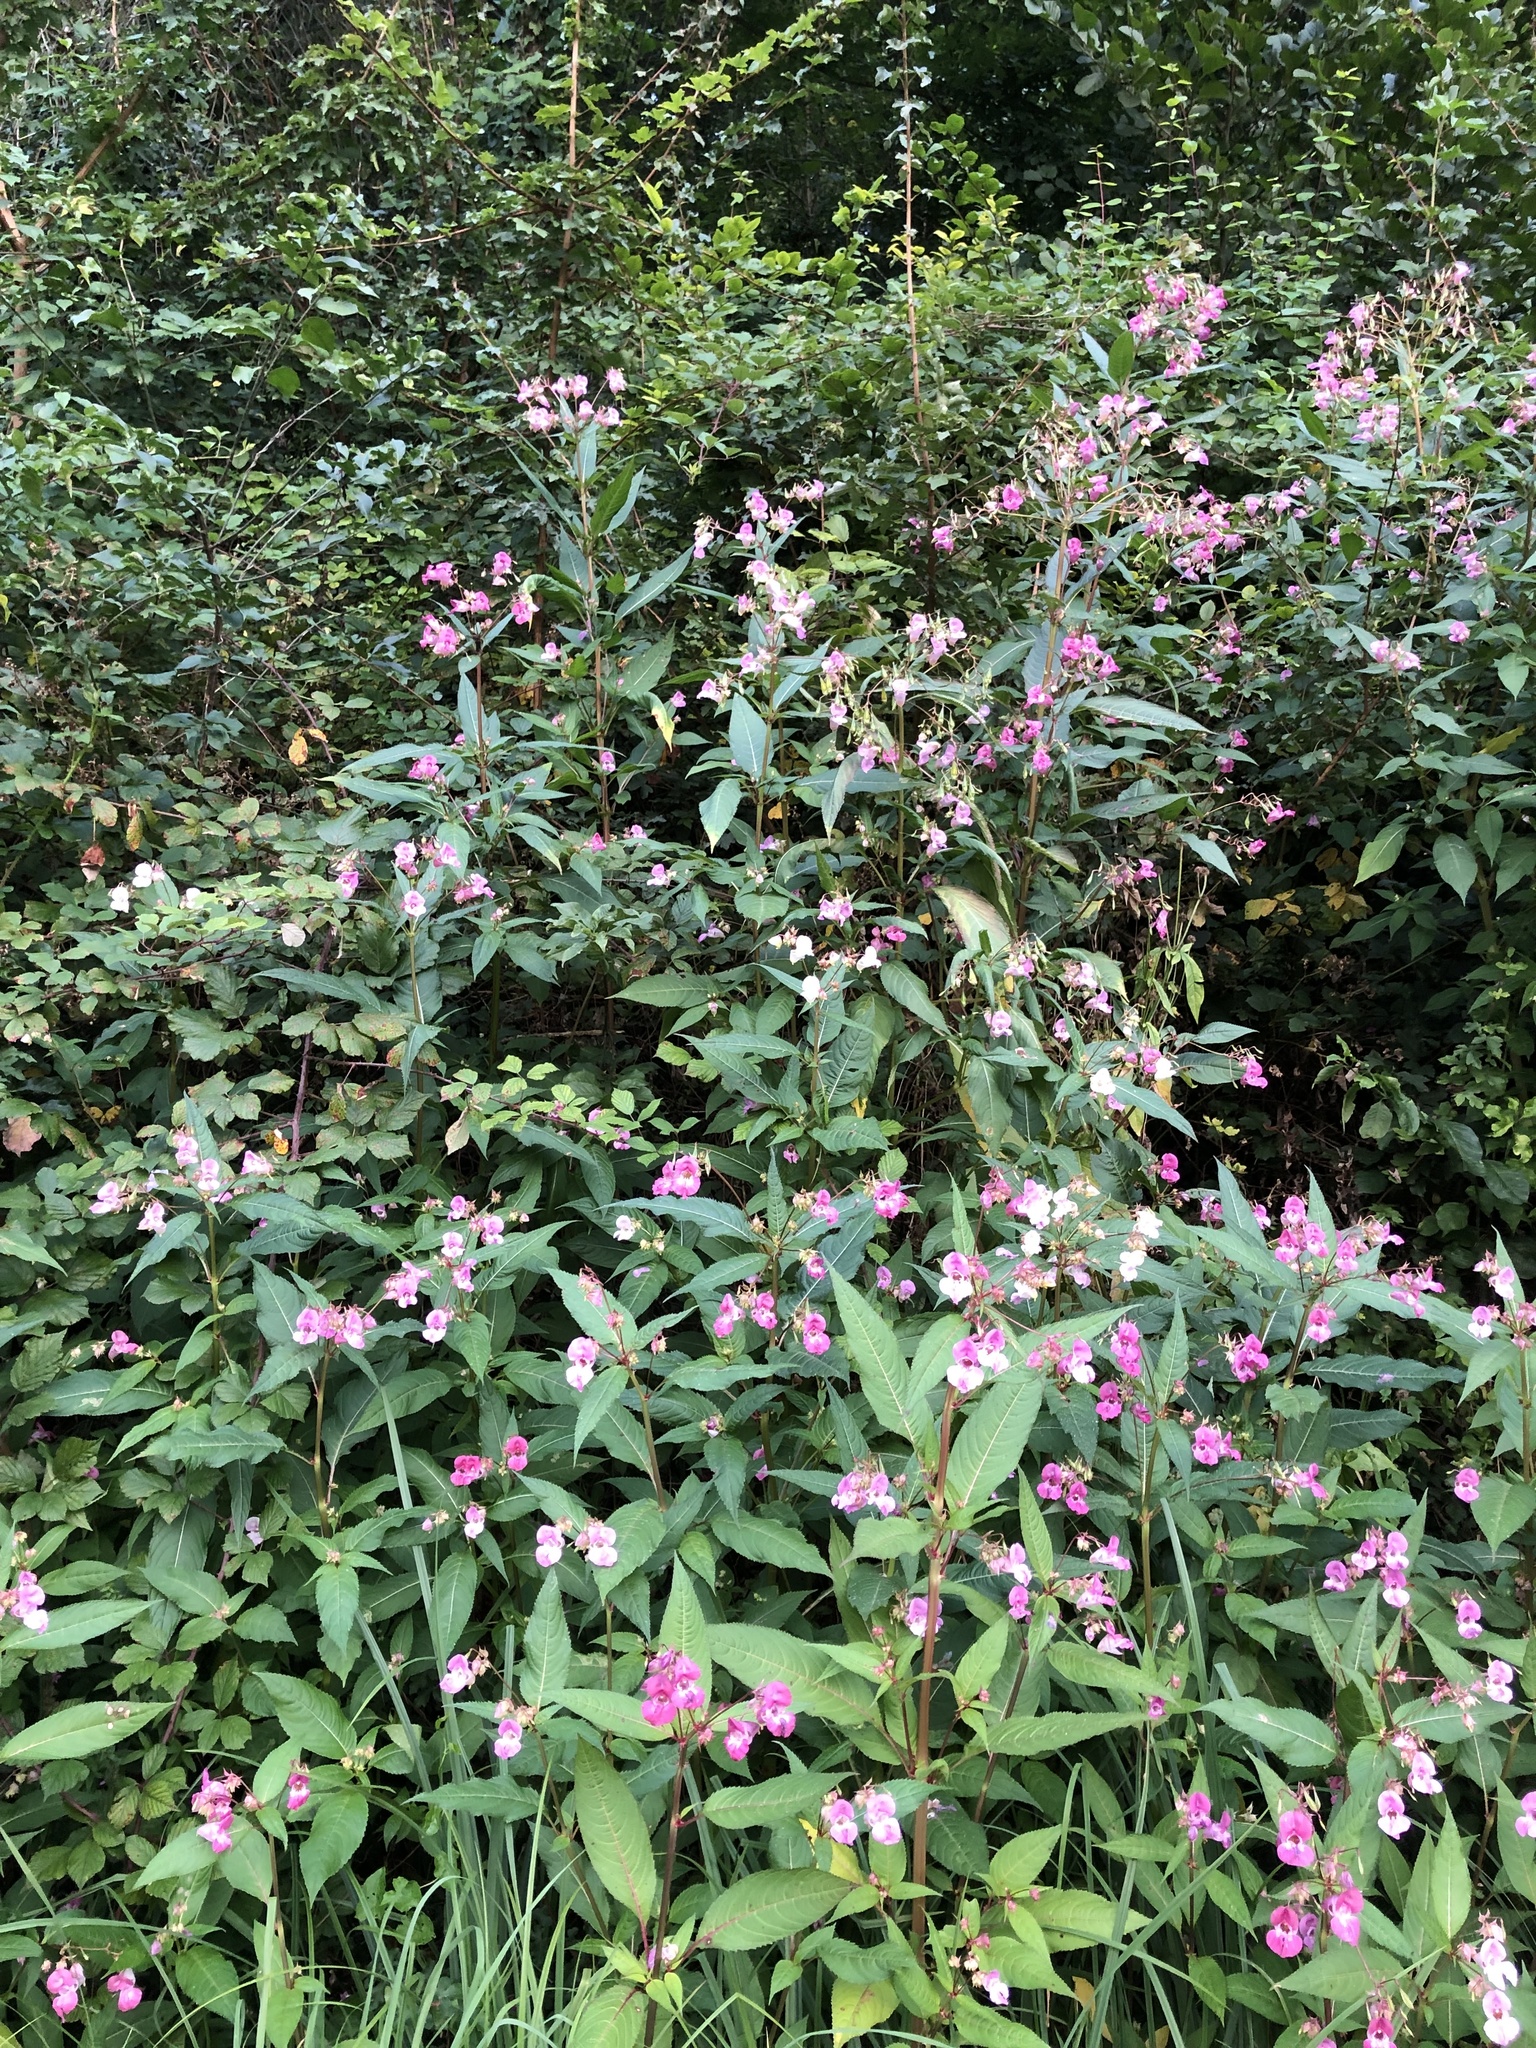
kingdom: Plantae
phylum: Tracheophyta
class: Magnoliopsida
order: Ericales
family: Balsaminaceae
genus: Impatiens
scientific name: Impatiens glandulifera
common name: Himalayan balsam
